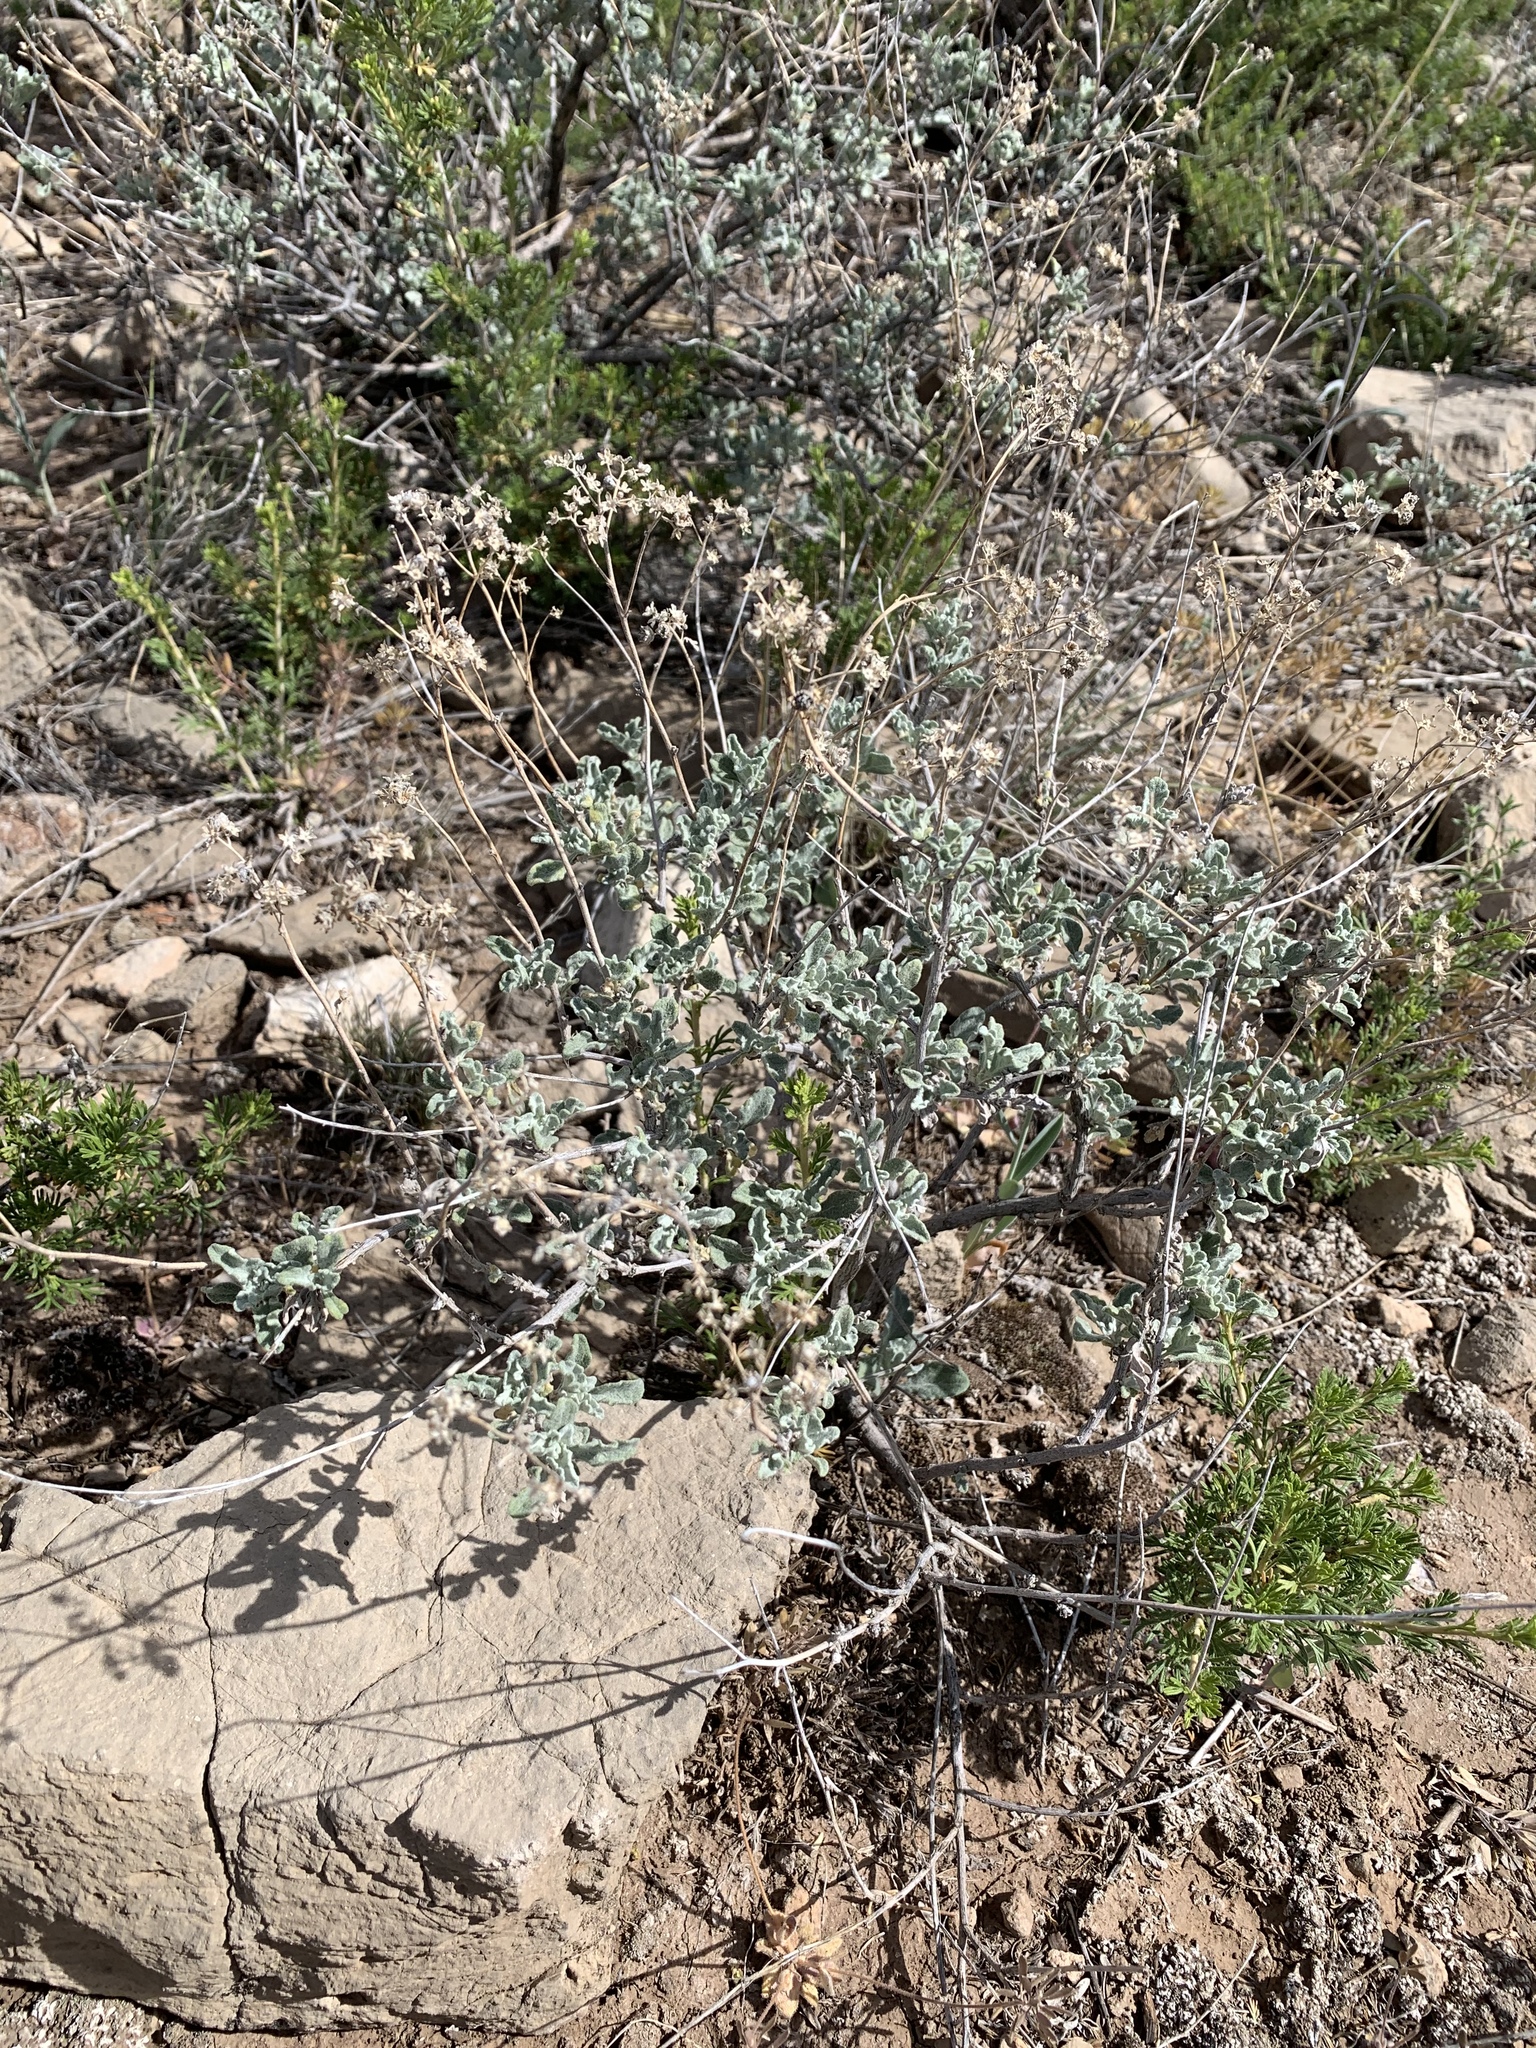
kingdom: Plantae
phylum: Tracheophyta
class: Magnoliopsida
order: Asterales
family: Asteraceae
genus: Parthenium
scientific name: Parthenium incanum
